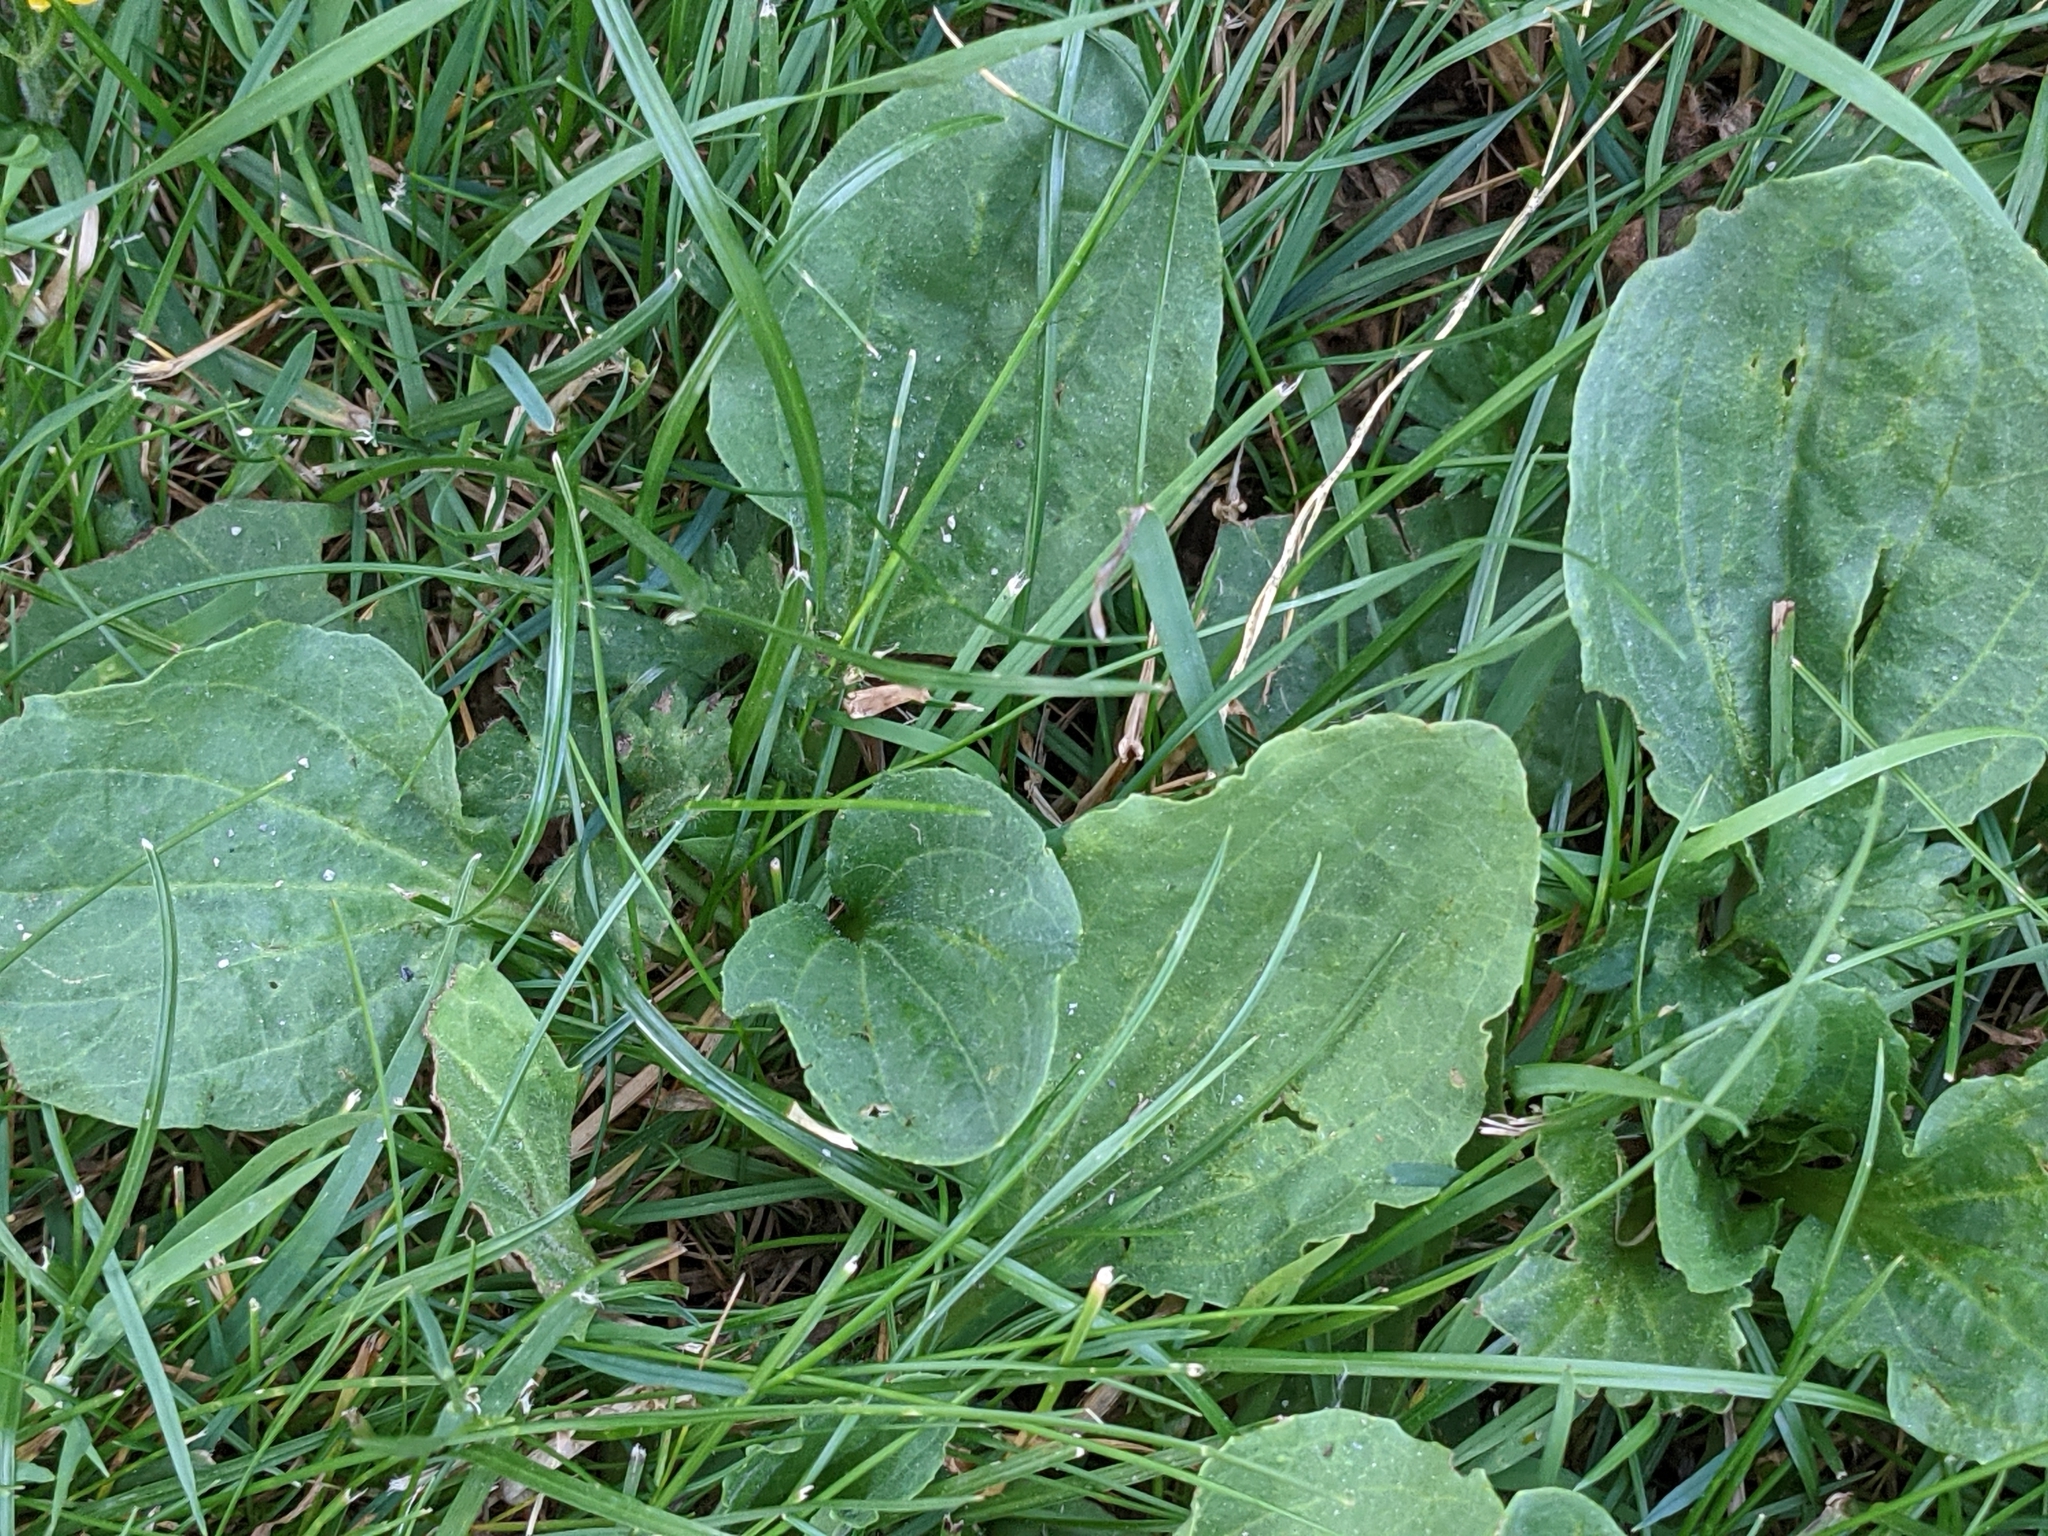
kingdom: Plantae
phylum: Tracheophyta
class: Magnoliopsida
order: Lamiales
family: Plantaginaceae
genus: Plantago
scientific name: Plantago major
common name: Common plantain
